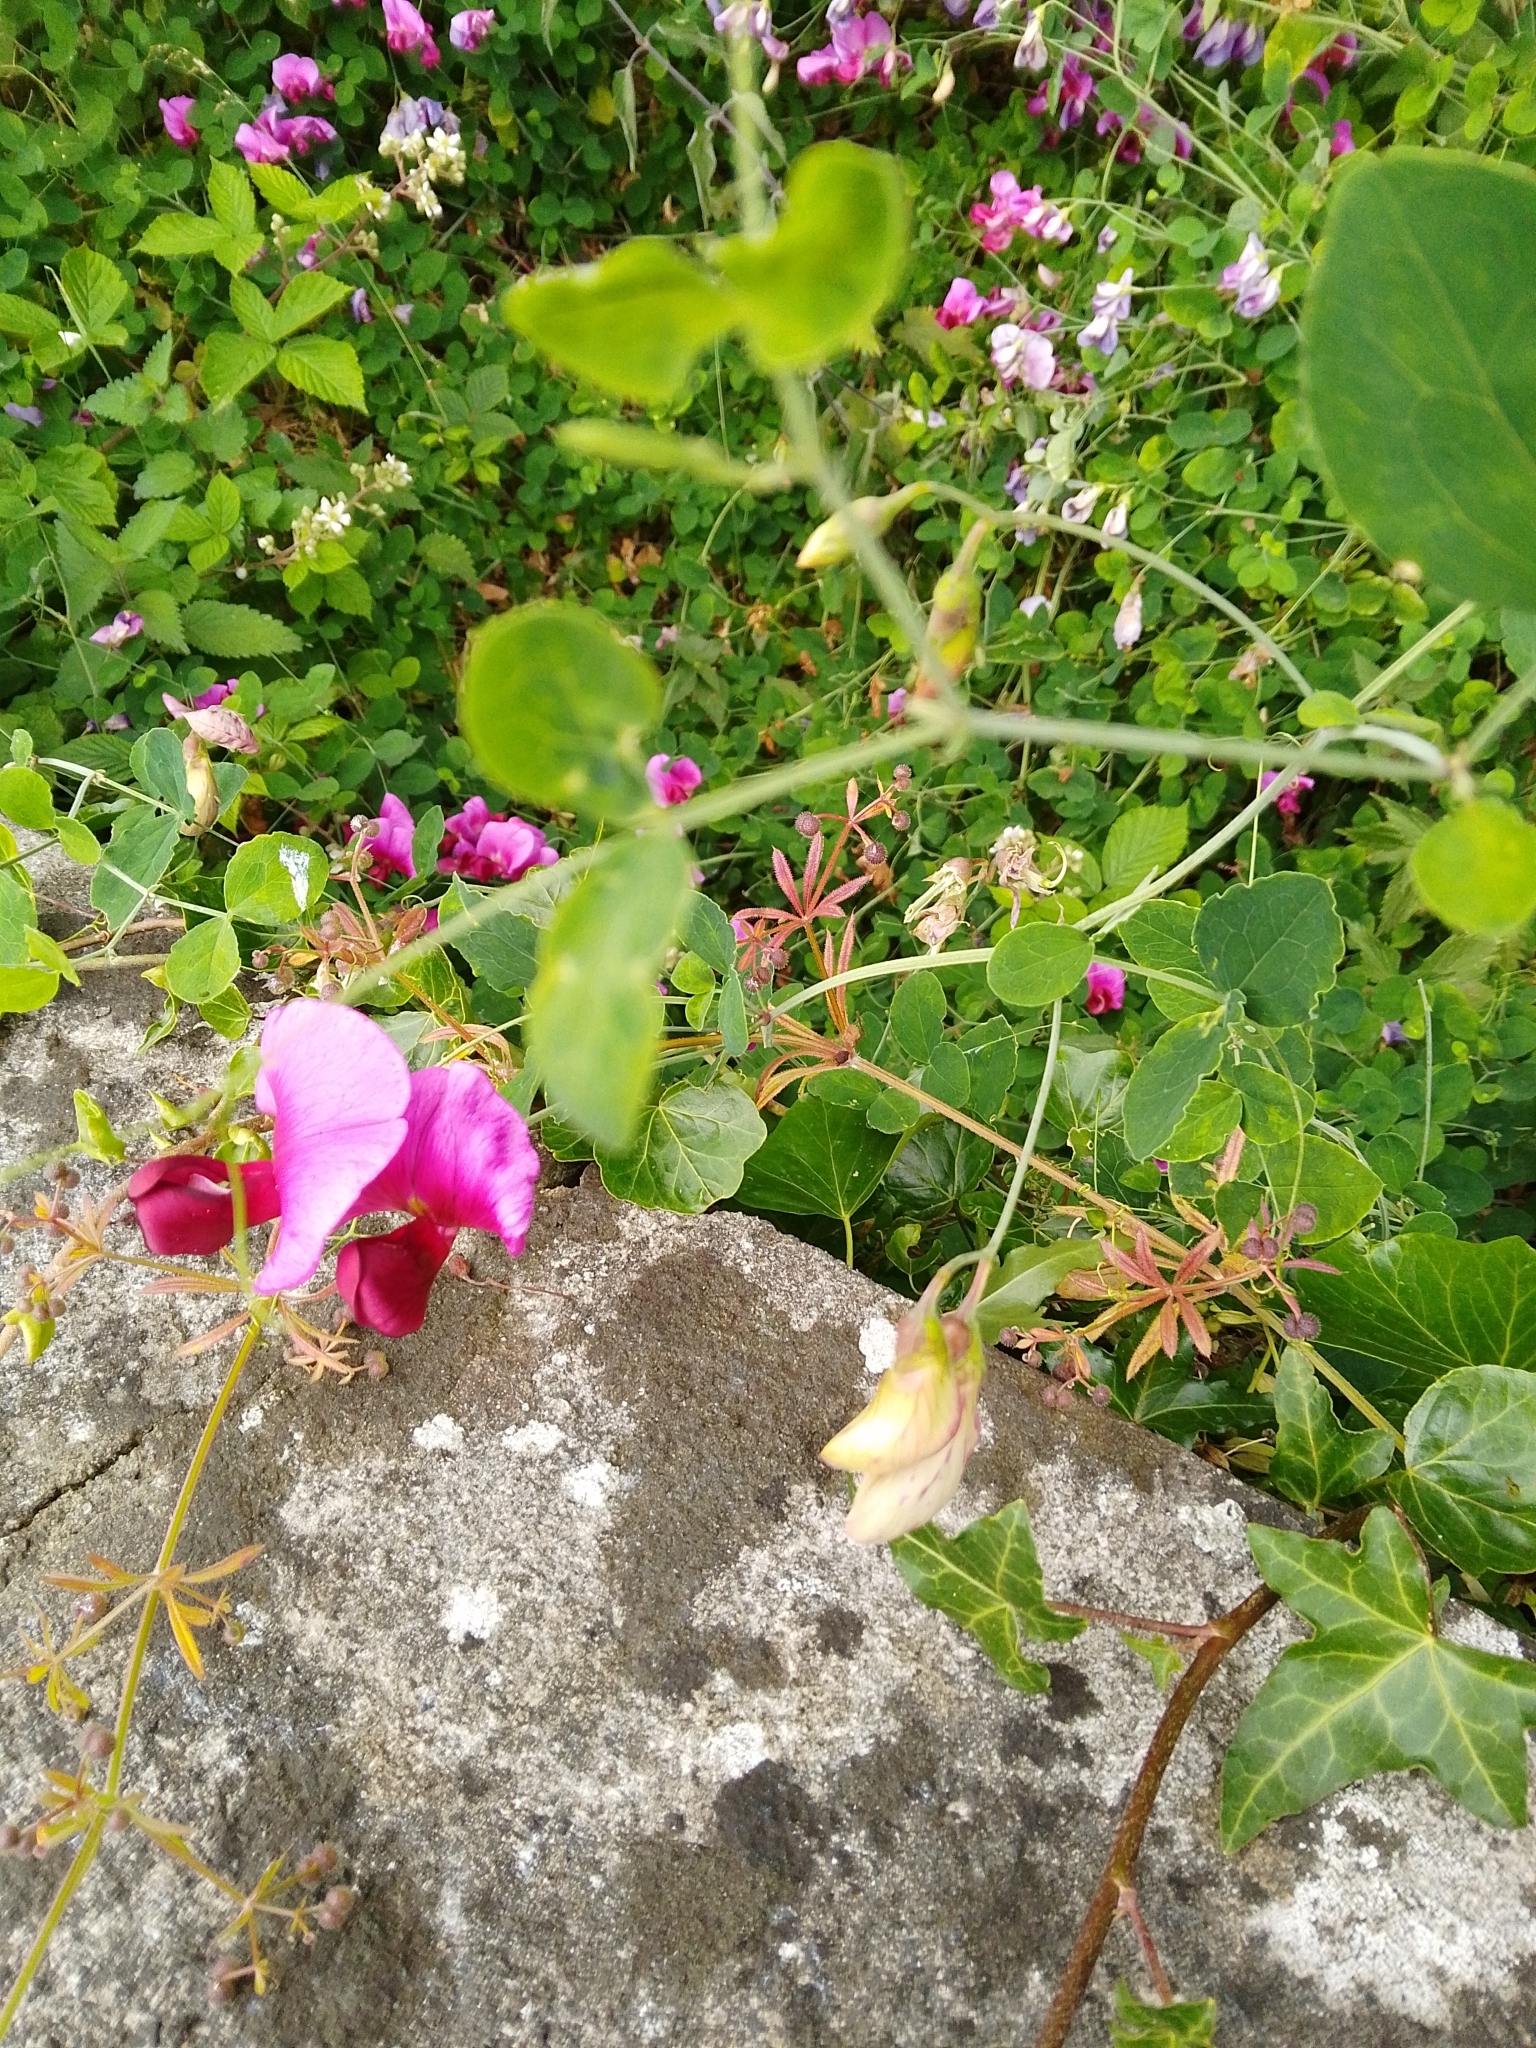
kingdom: Plantae
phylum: Tracheophyta
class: Magnoliopsida
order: Fabales
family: Fabaceae
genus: Lathyrus
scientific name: Lathyrus grandiflorus
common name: Two-flowered everlasting-pea
